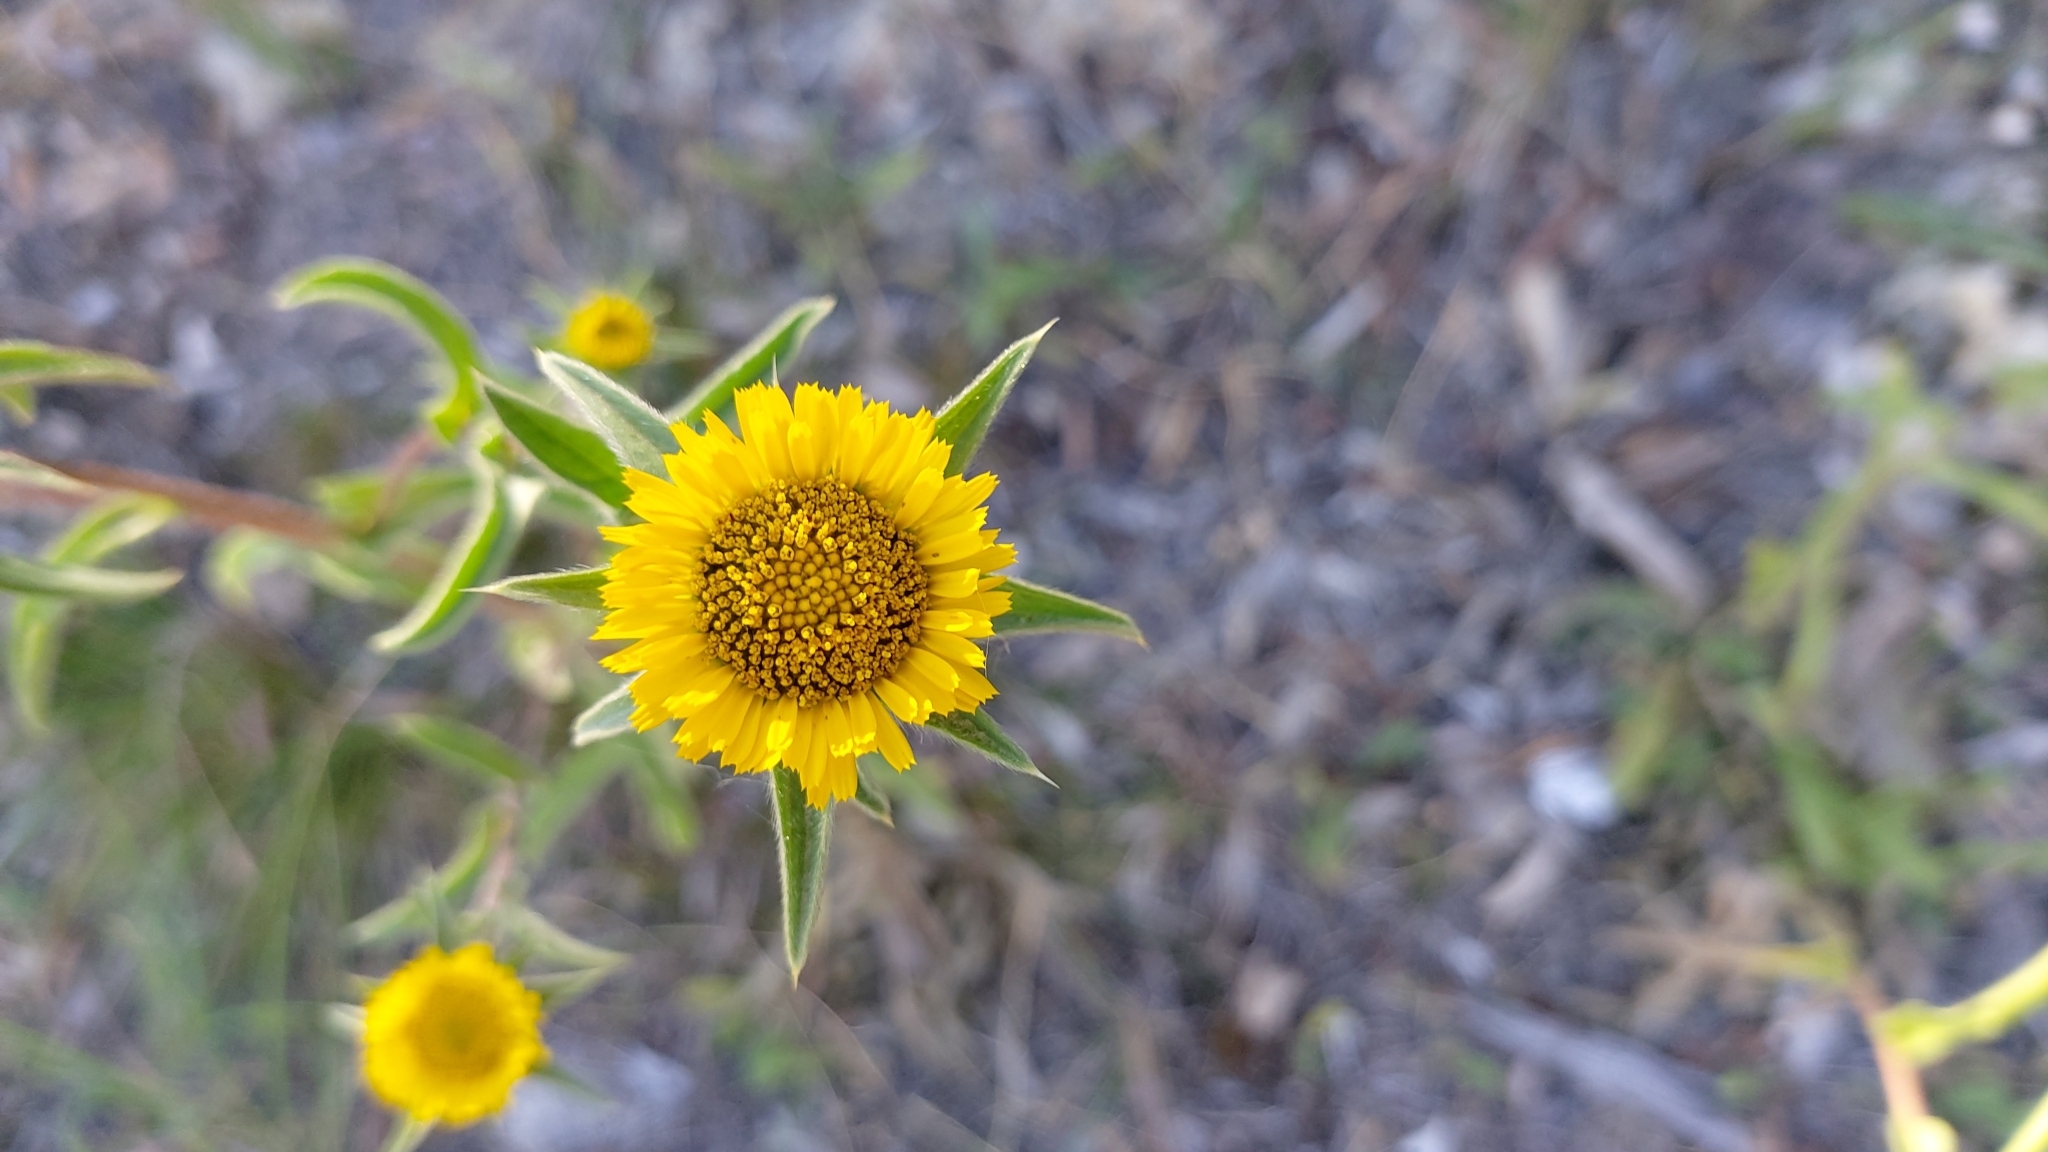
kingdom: Plantae
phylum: Tracheophyta
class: Magnoliopsida
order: Asterales
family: Asteraceae
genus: Pallenis
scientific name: Pallenis spinosa
